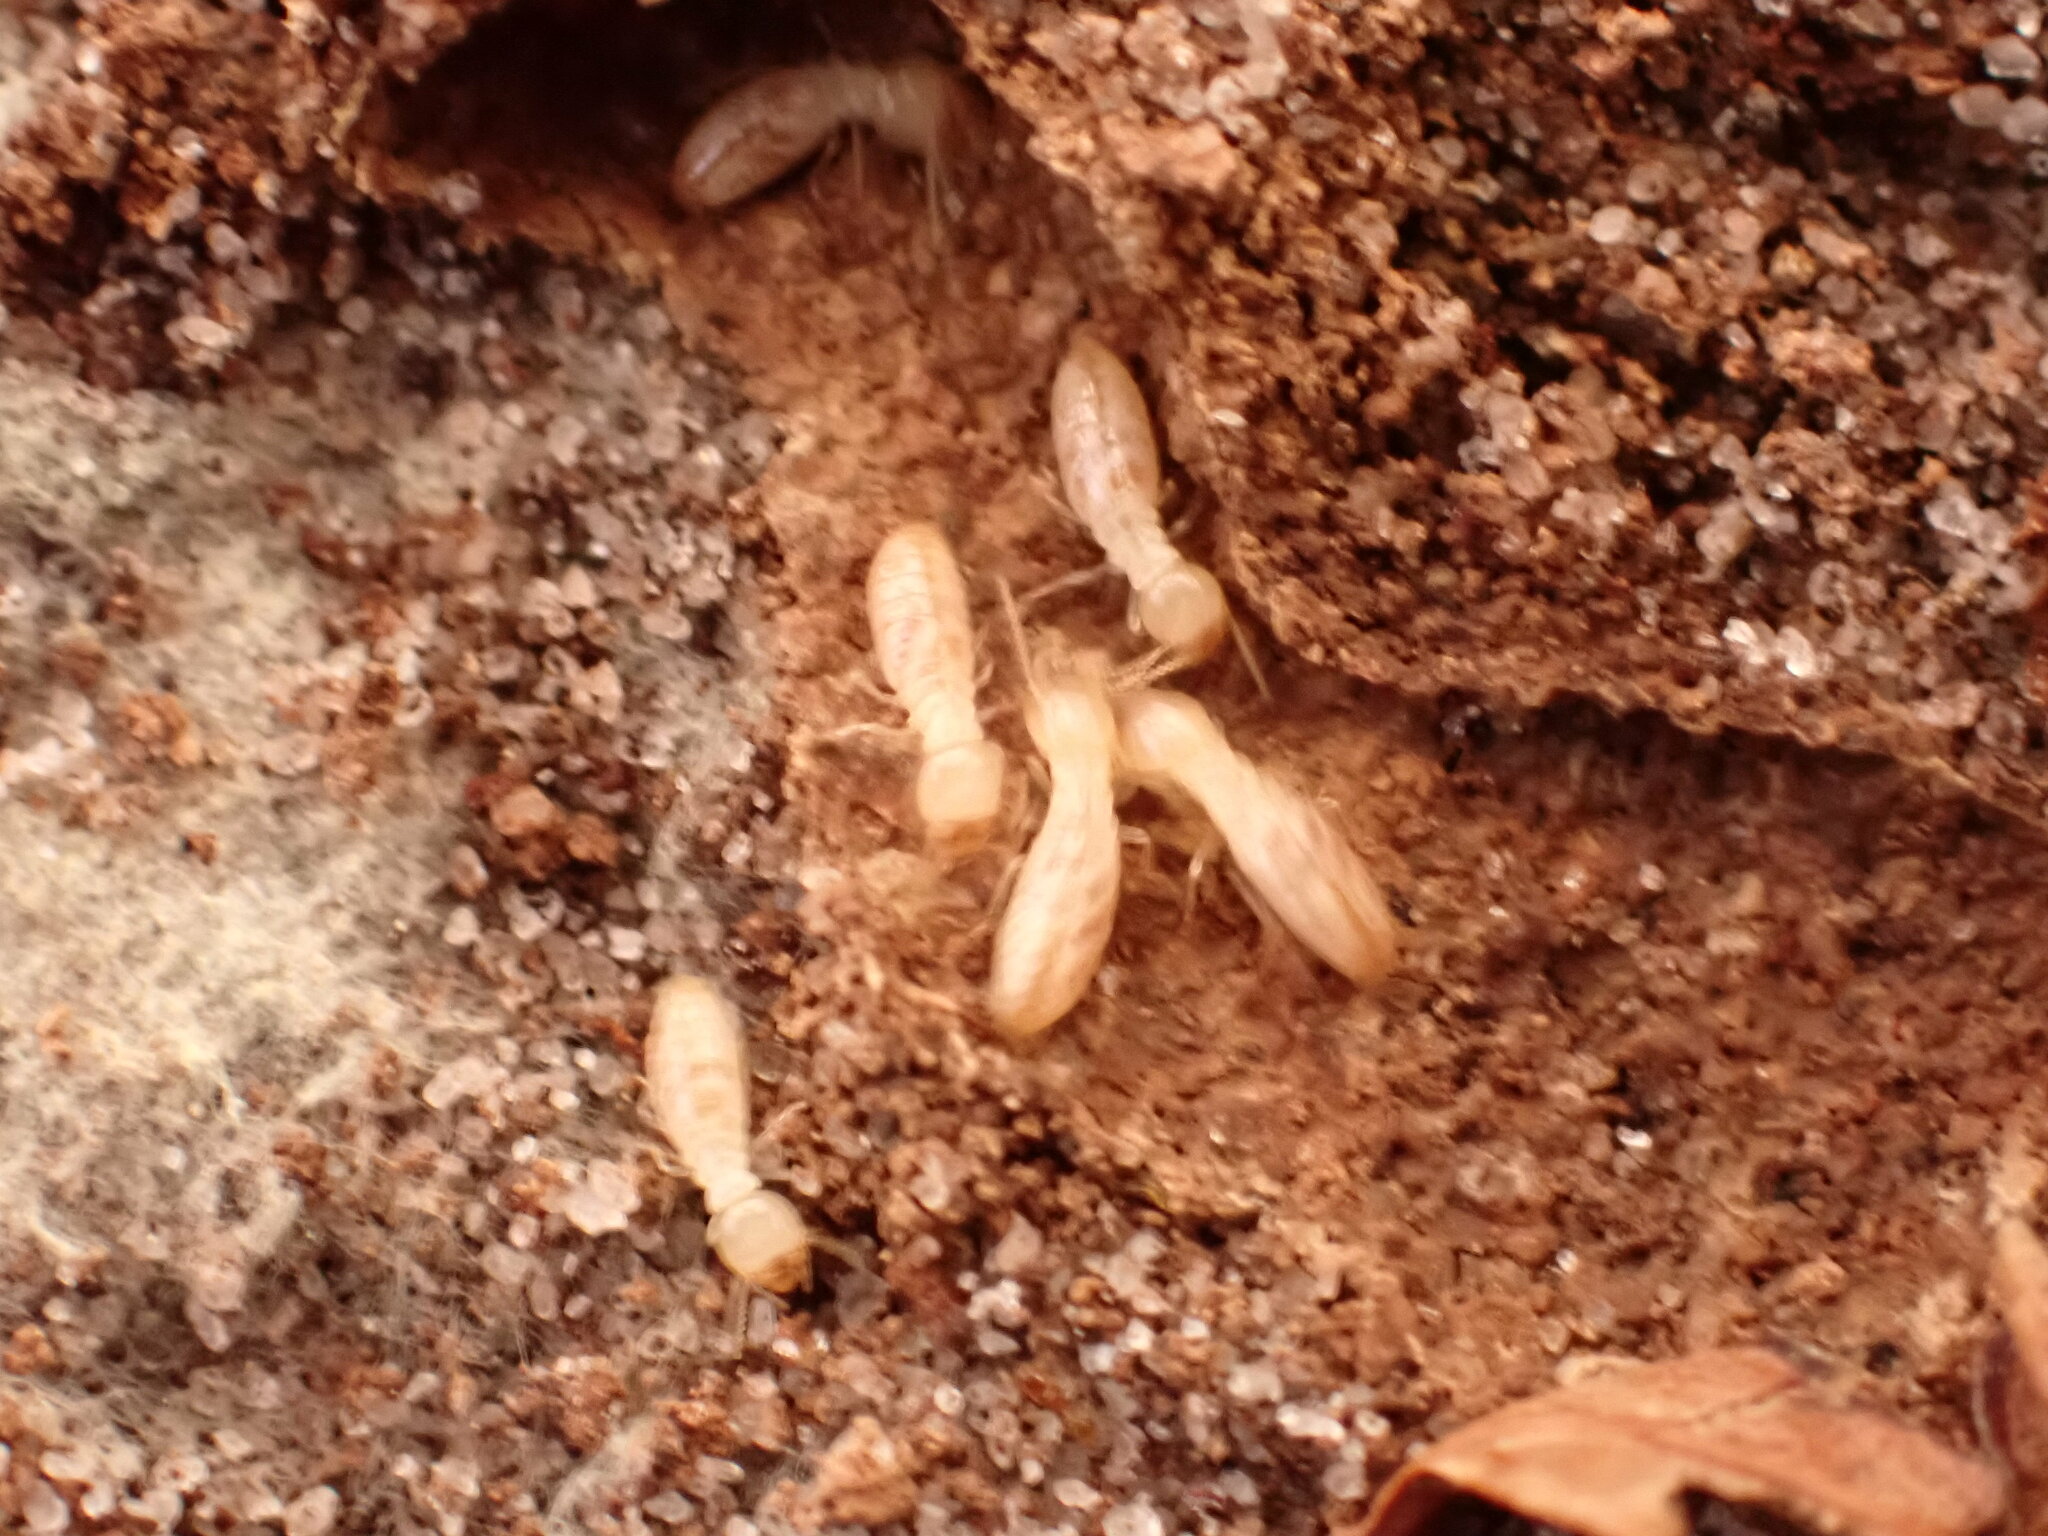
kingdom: Animalia
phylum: Arthropoda
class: Insecta
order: Blattodea
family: Rhinotermitidae
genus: Reticulitermes
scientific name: Reticulitermes flavipes
